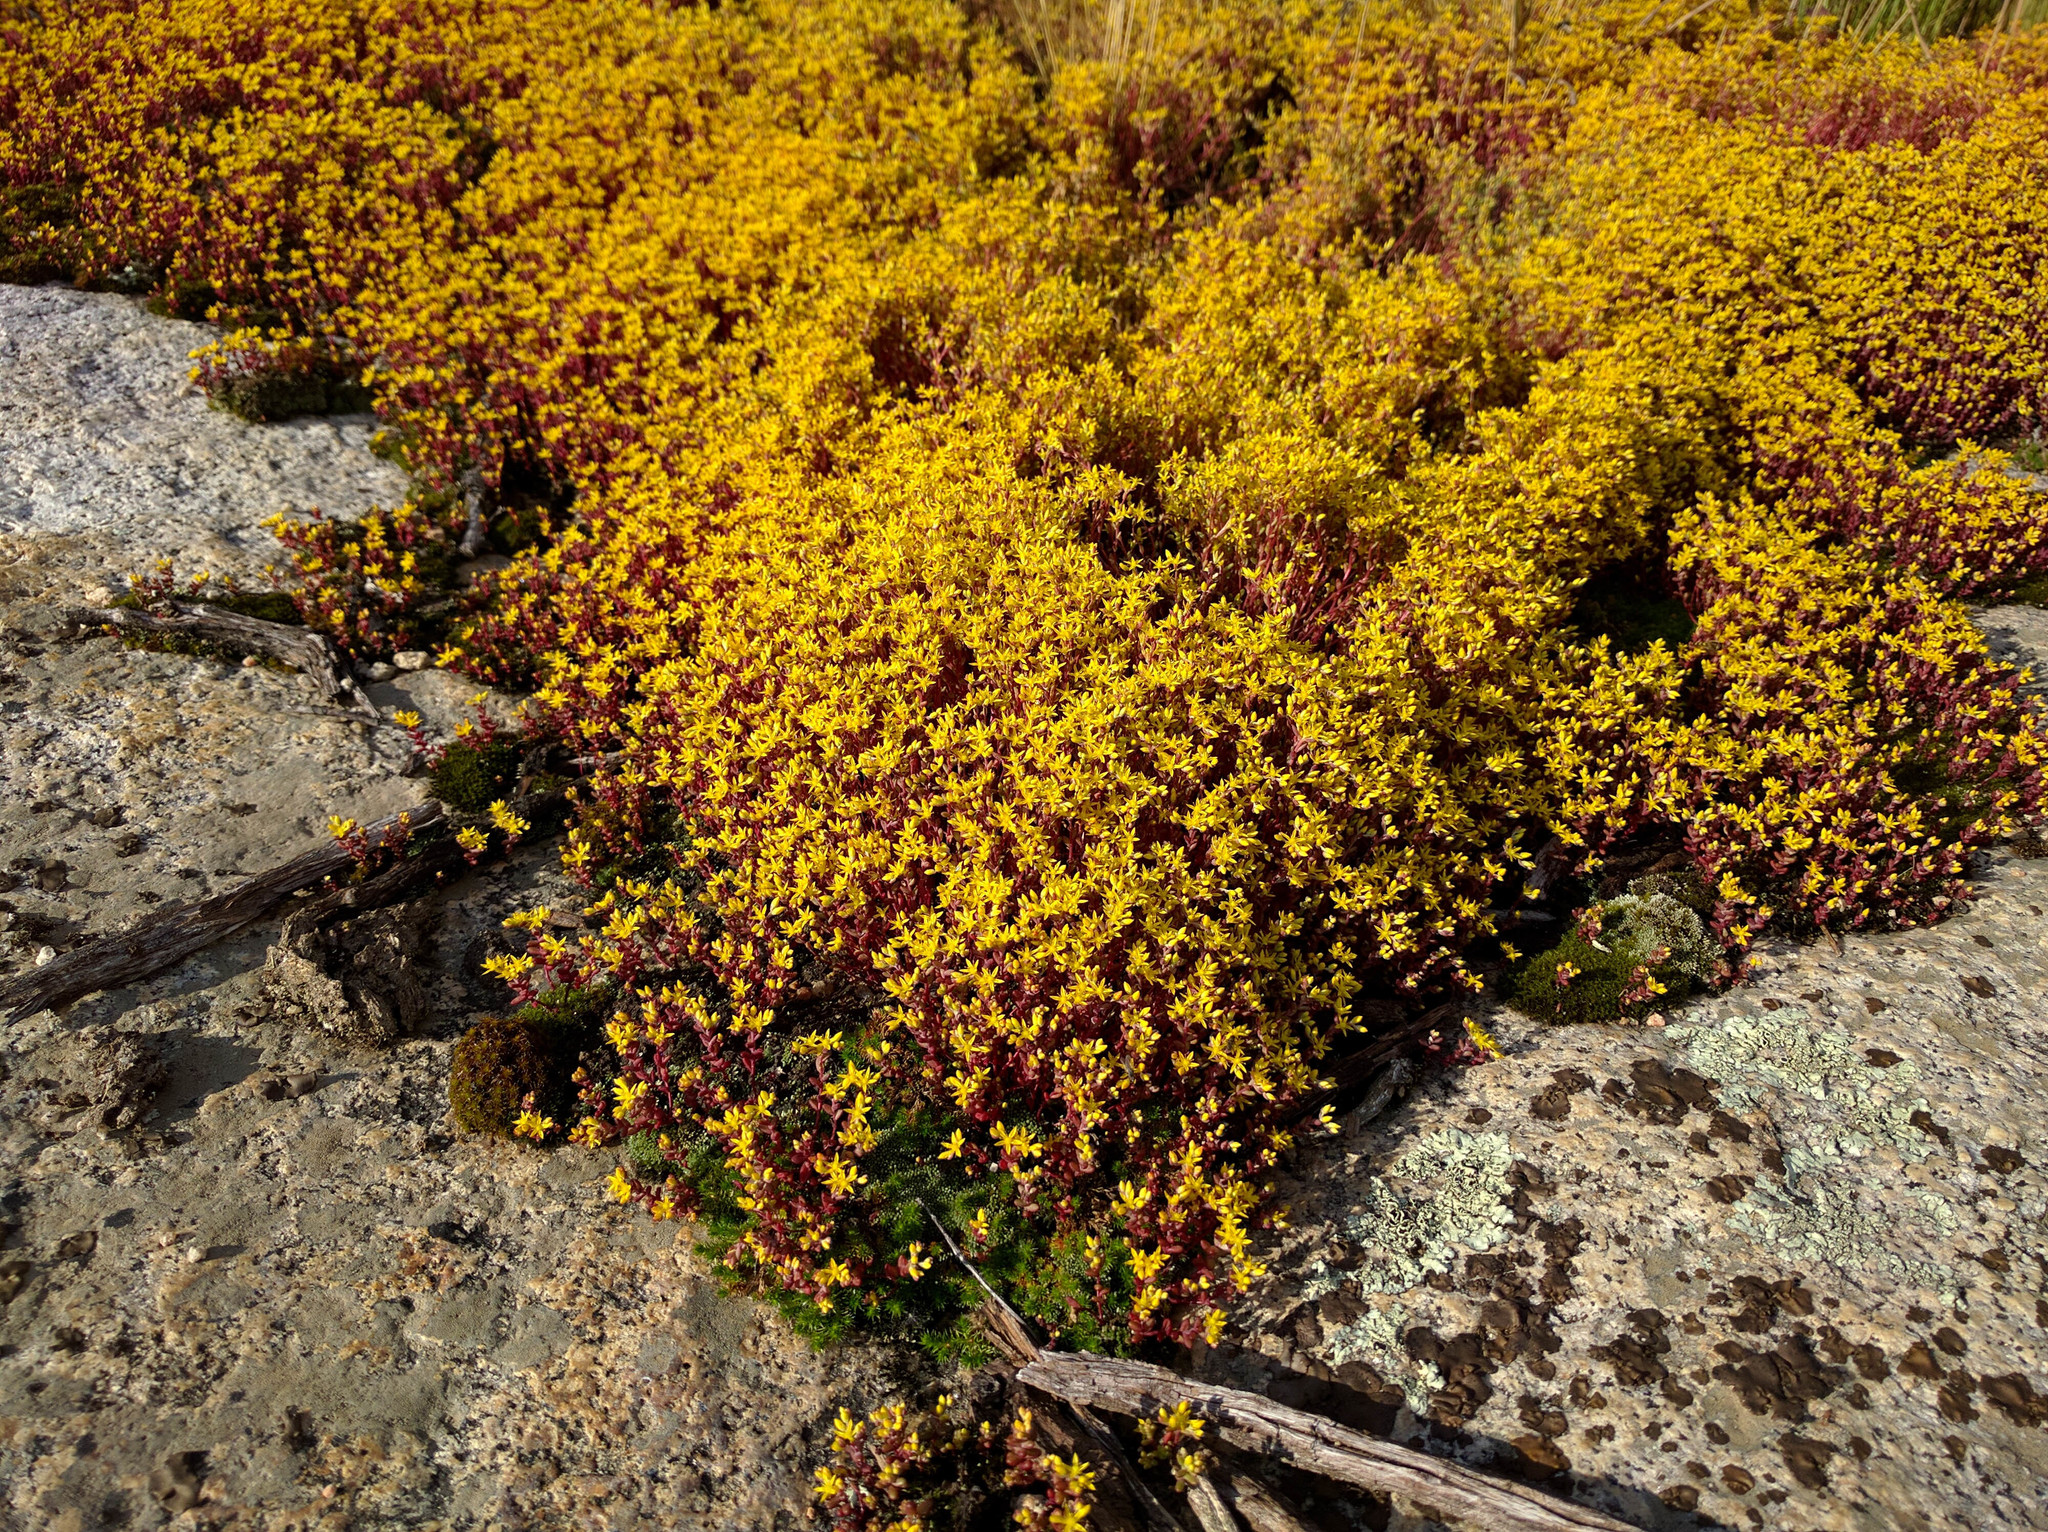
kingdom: Plantae
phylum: Tracheophyta
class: Magnoliopsida
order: Saxifragales
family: Crassulaceae
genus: Sedella
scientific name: Sedella pumila
